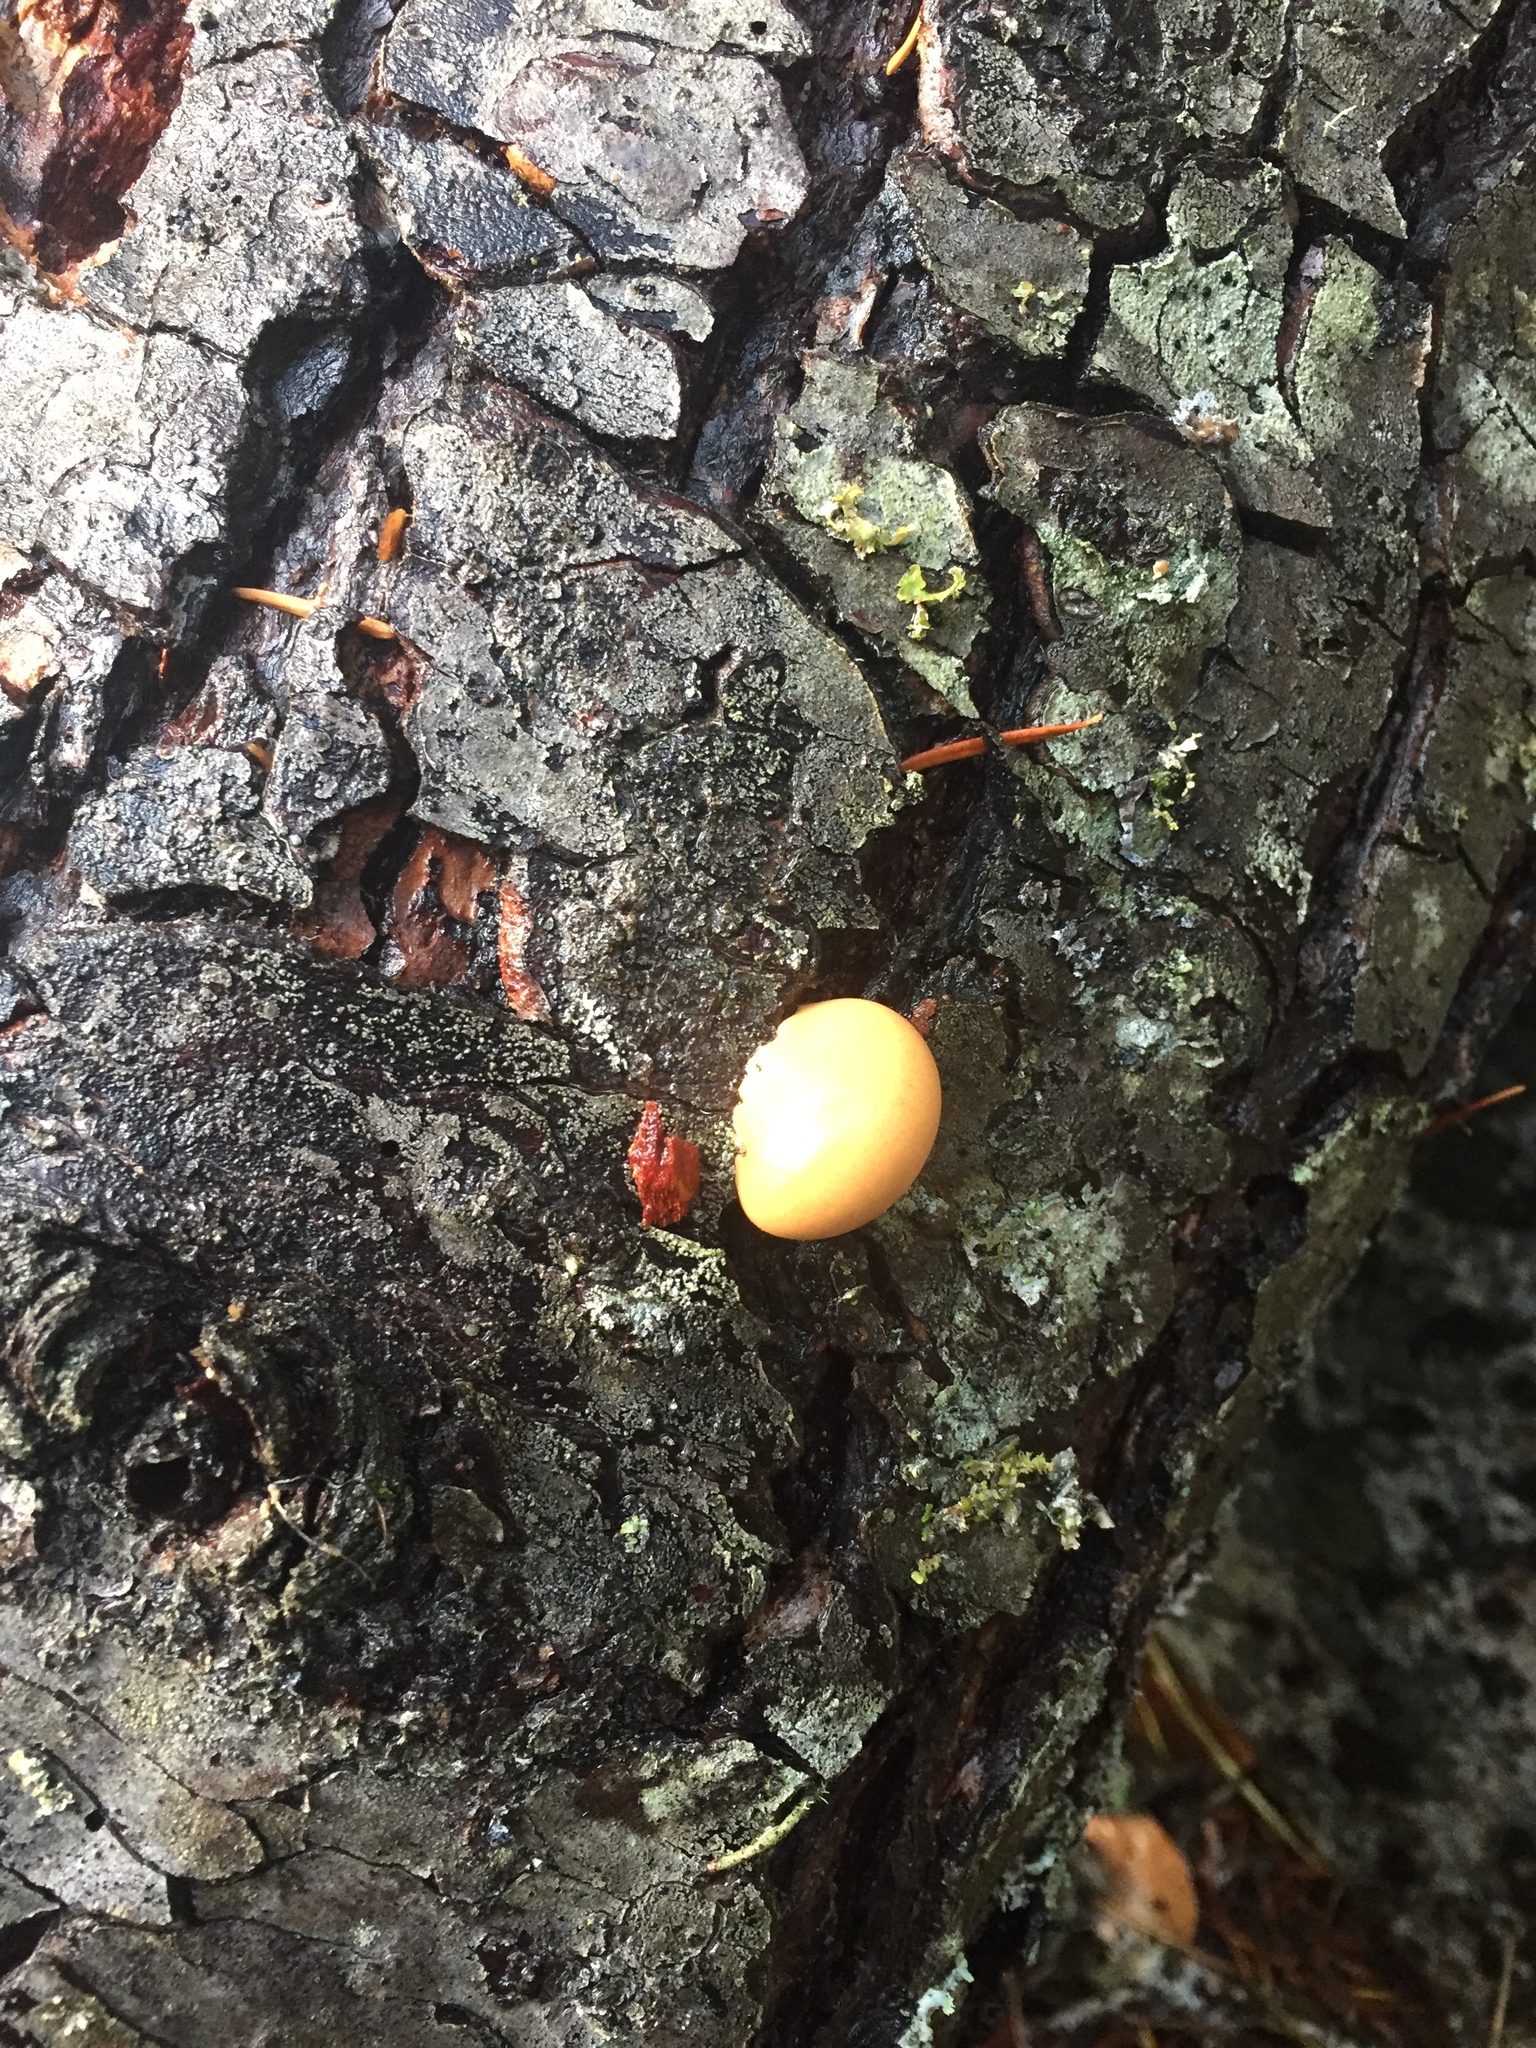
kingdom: Fungi
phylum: Basidiomycota
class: Agaricomycetes
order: Polyporales
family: Polyporaceae
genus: Cryptoporus
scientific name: Cryptoporus volvatus
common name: Veiled polypore
